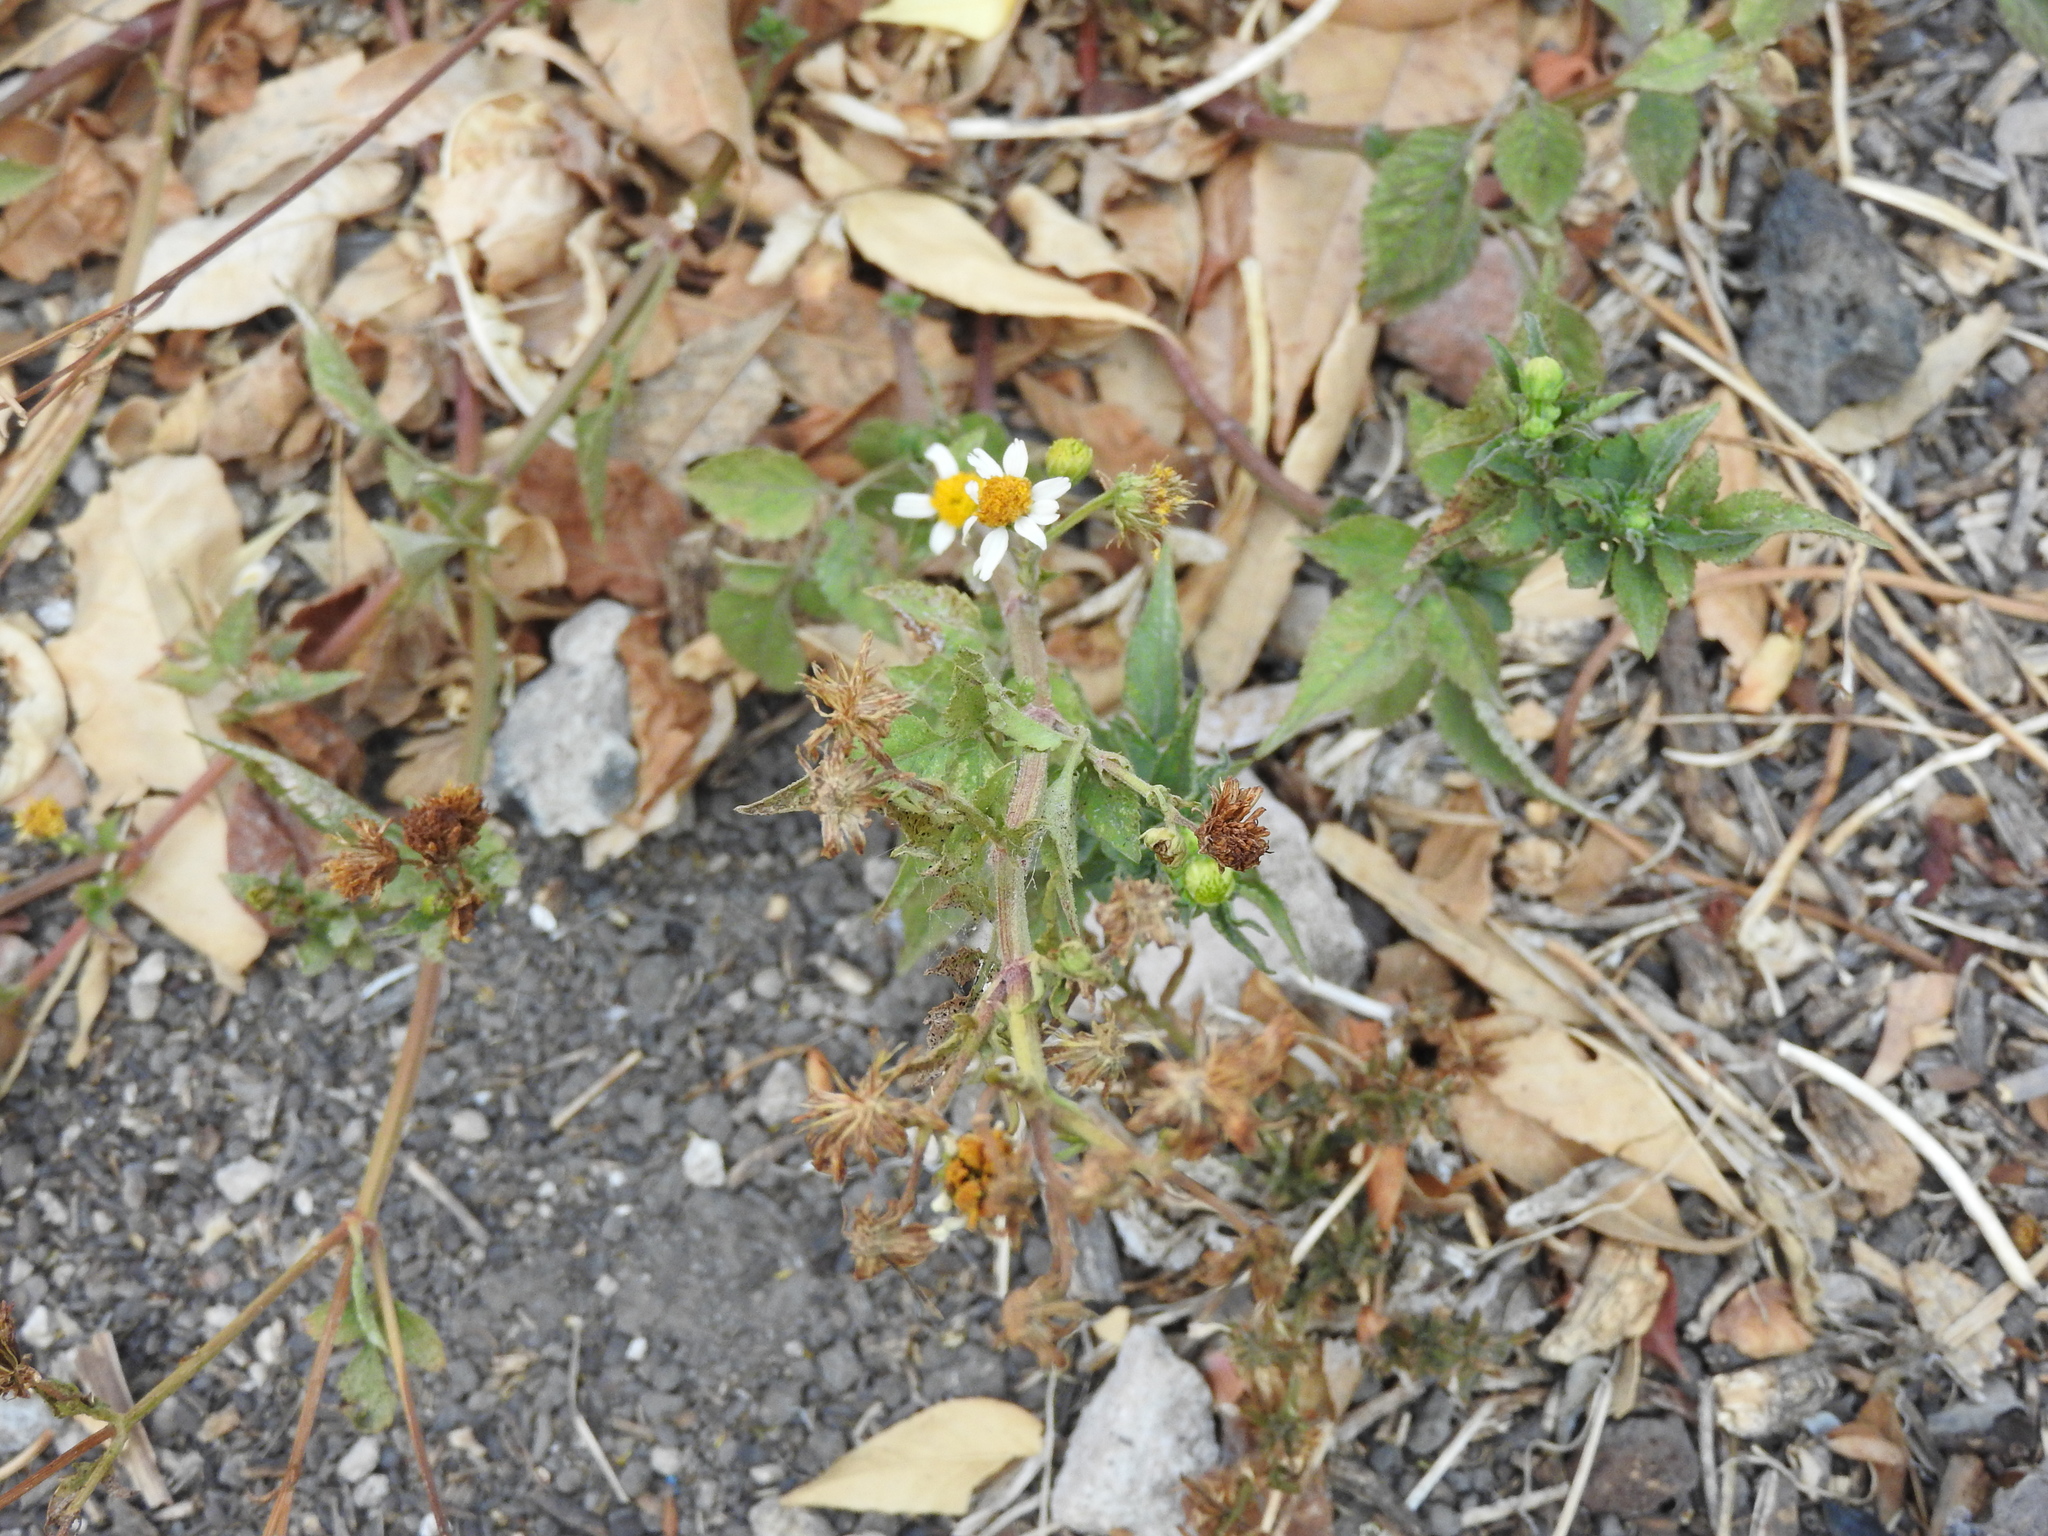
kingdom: Plantae
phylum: Tracheophyta
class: Magnoliopsida
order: Asterales
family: Asteraceae
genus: Bidens
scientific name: Bidens alba
